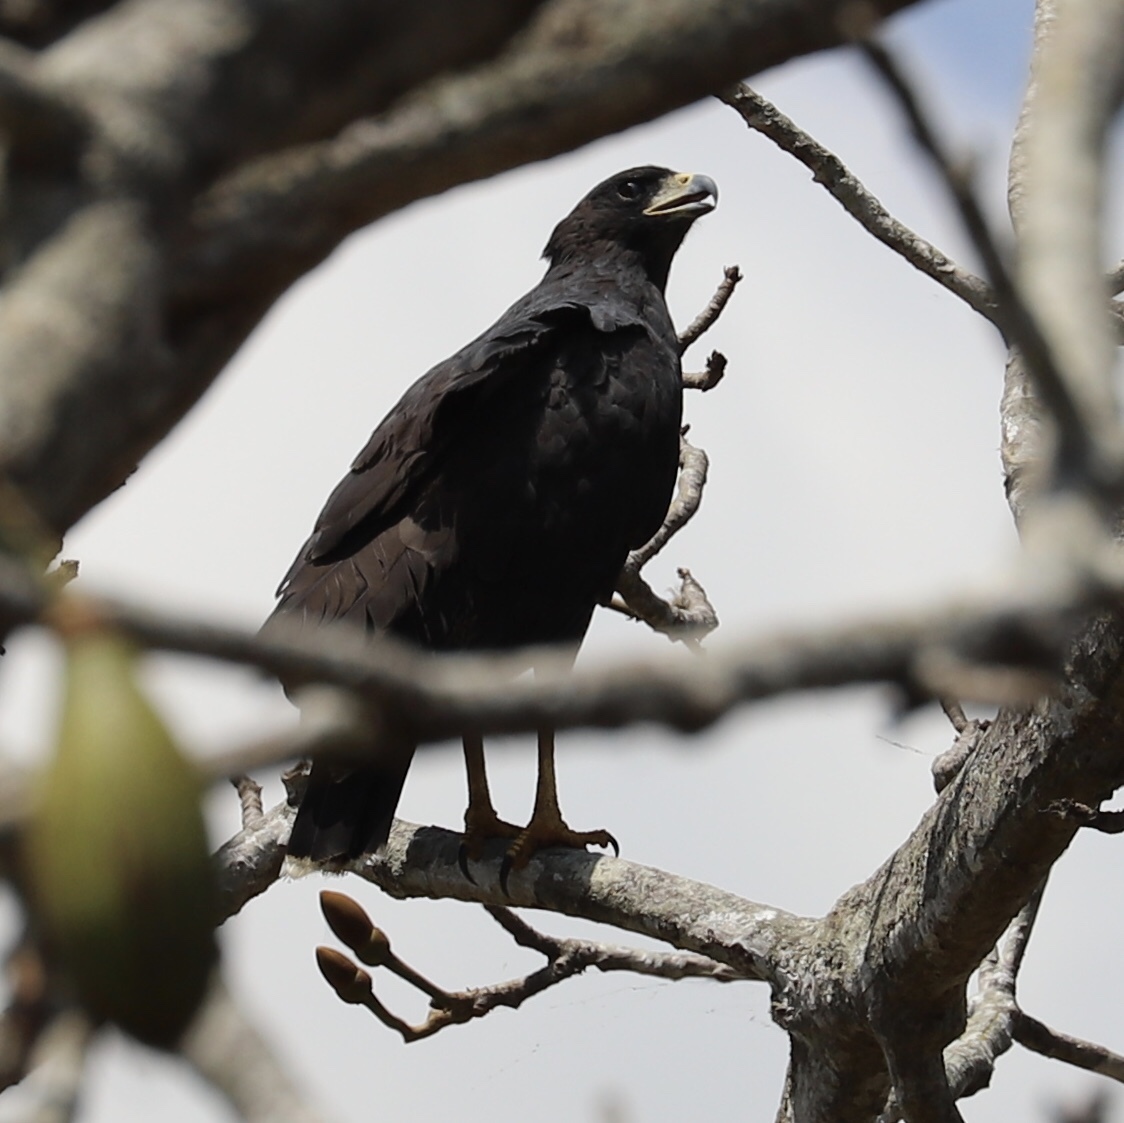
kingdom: Animalia
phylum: Chordata
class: Aves
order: Accipitriformes
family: Accipitridae
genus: Buteogallus
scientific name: Buteogallus urubitinga
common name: Great black hawk
